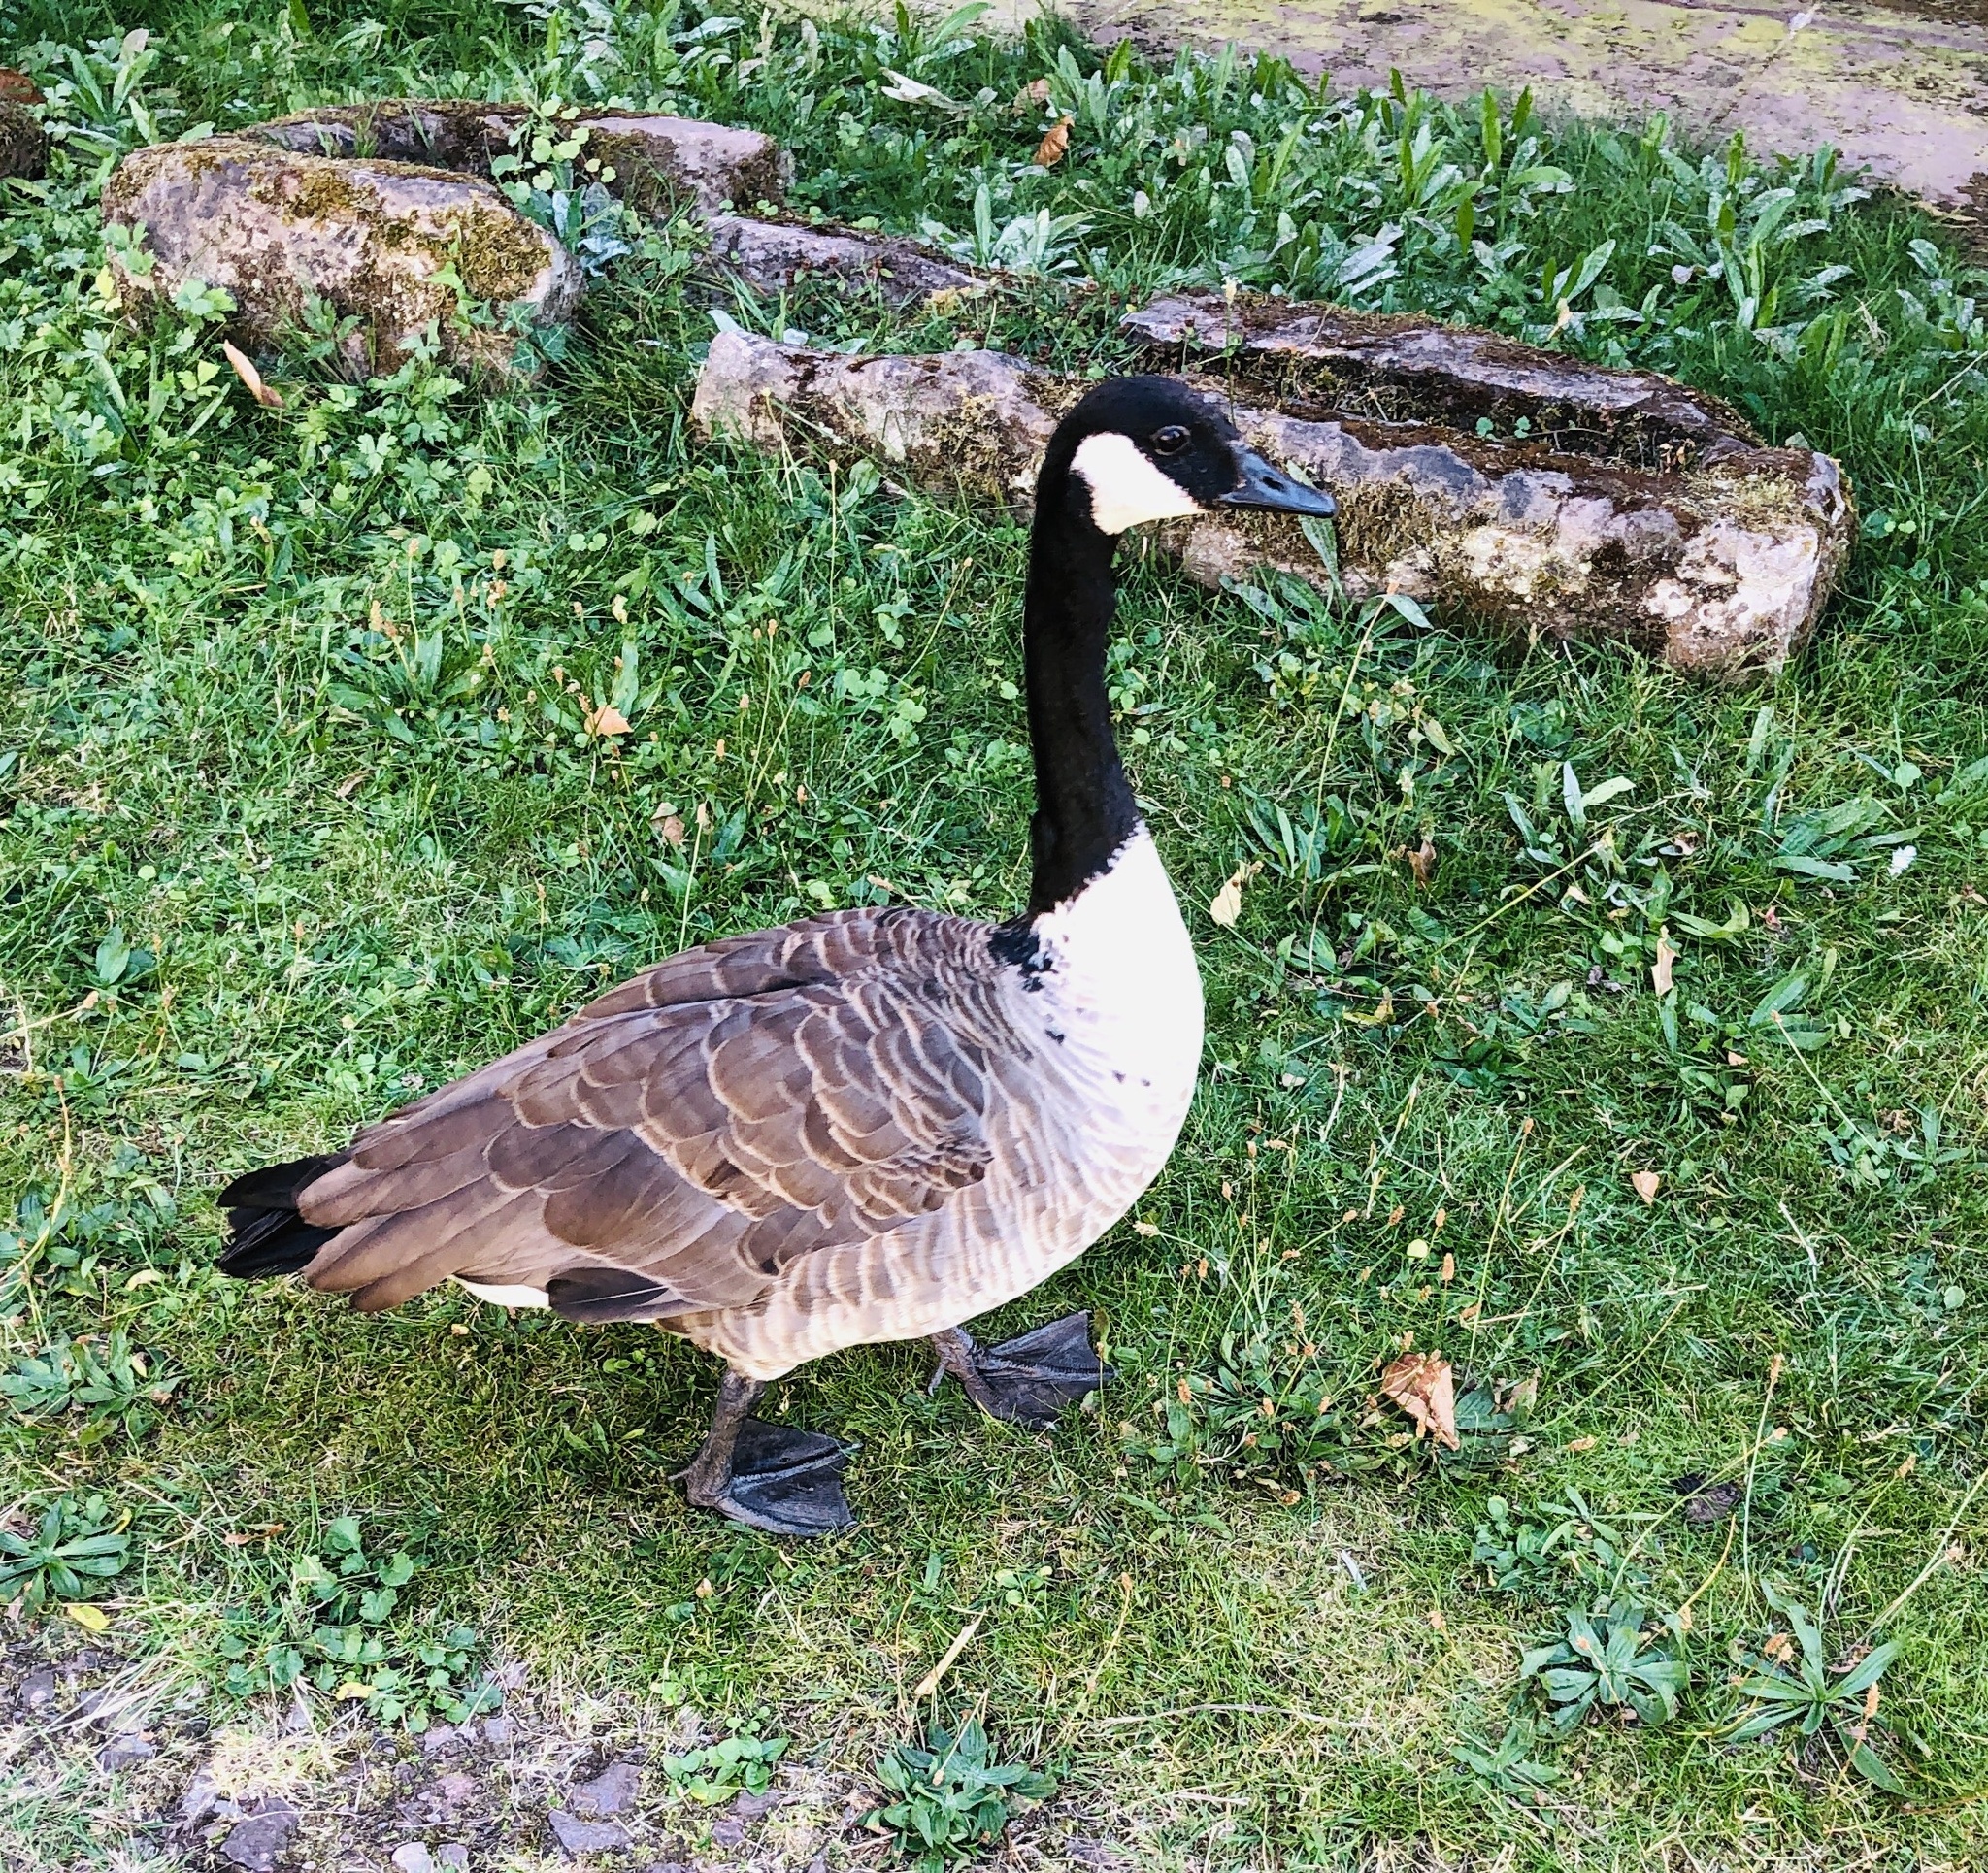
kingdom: Animalia
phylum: Chordata
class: Aves
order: Anseriformes
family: Anatidae
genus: Branta
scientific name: Branta canadensis
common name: Canada goose
